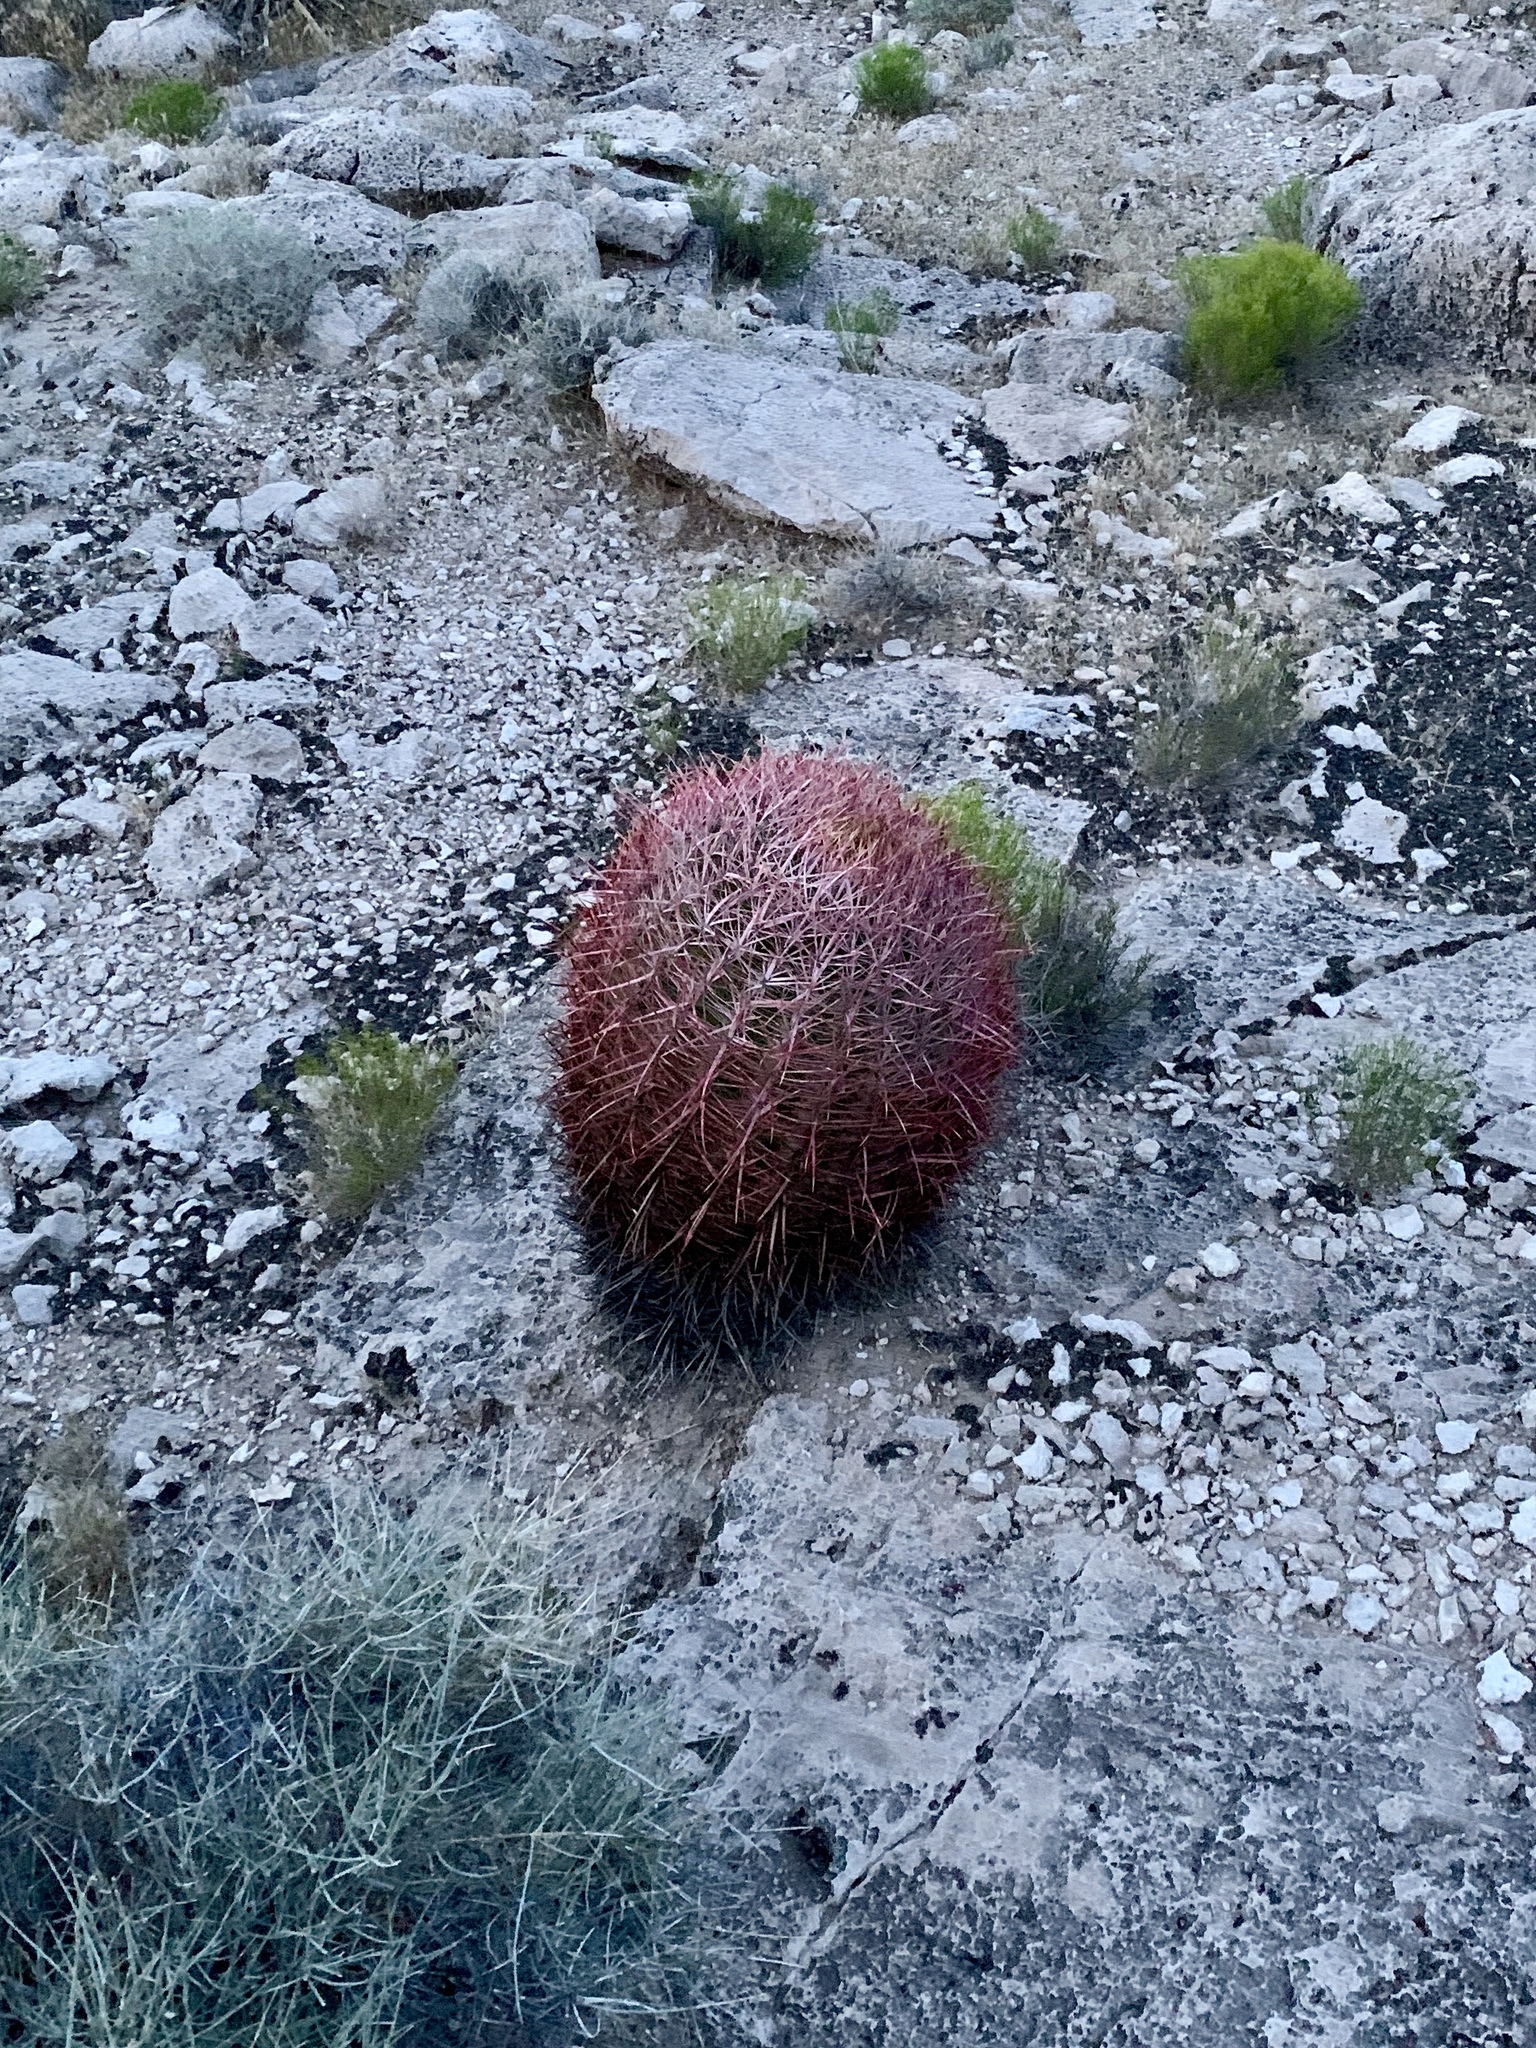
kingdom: Plantae
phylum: Tracheophyta
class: Magnoliopsida
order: Caryophyllales
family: Cactaceae
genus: Ferocactus
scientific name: Ferocactus cylindraceus
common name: California barrel cactus
